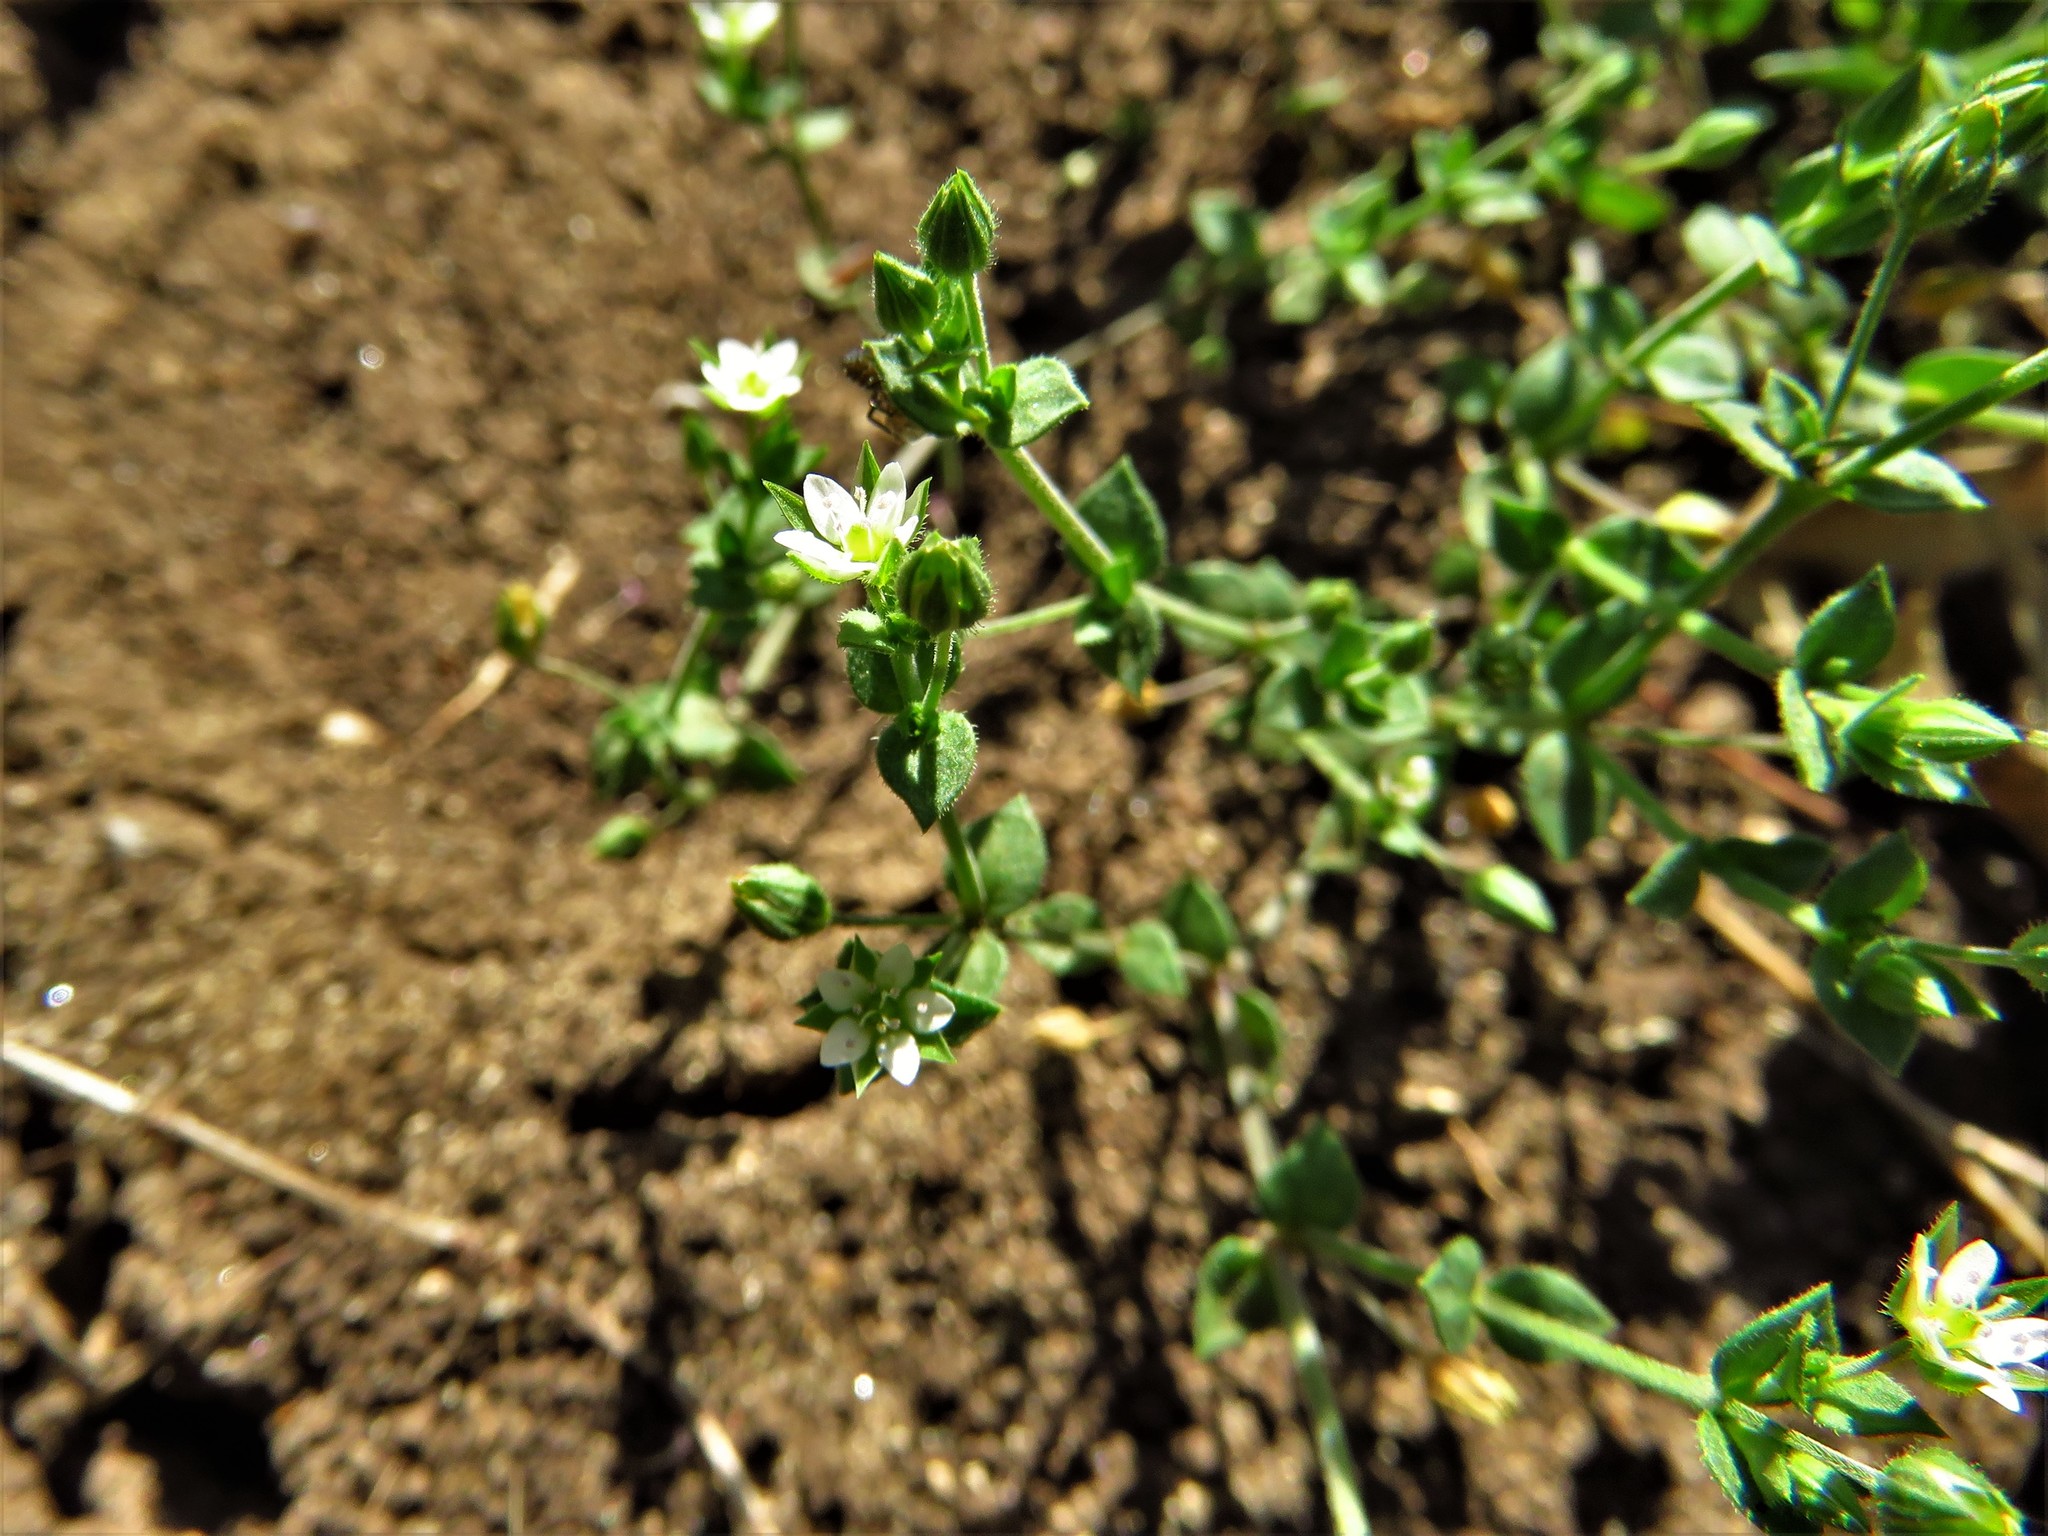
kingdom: Plantae
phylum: Tracheophyta
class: Magnoliopsida
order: Caryophyllales
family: Caryophyllaceae
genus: Arenaria
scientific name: Arenaria serpyllifolia
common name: Thyme-leaved sandwort
